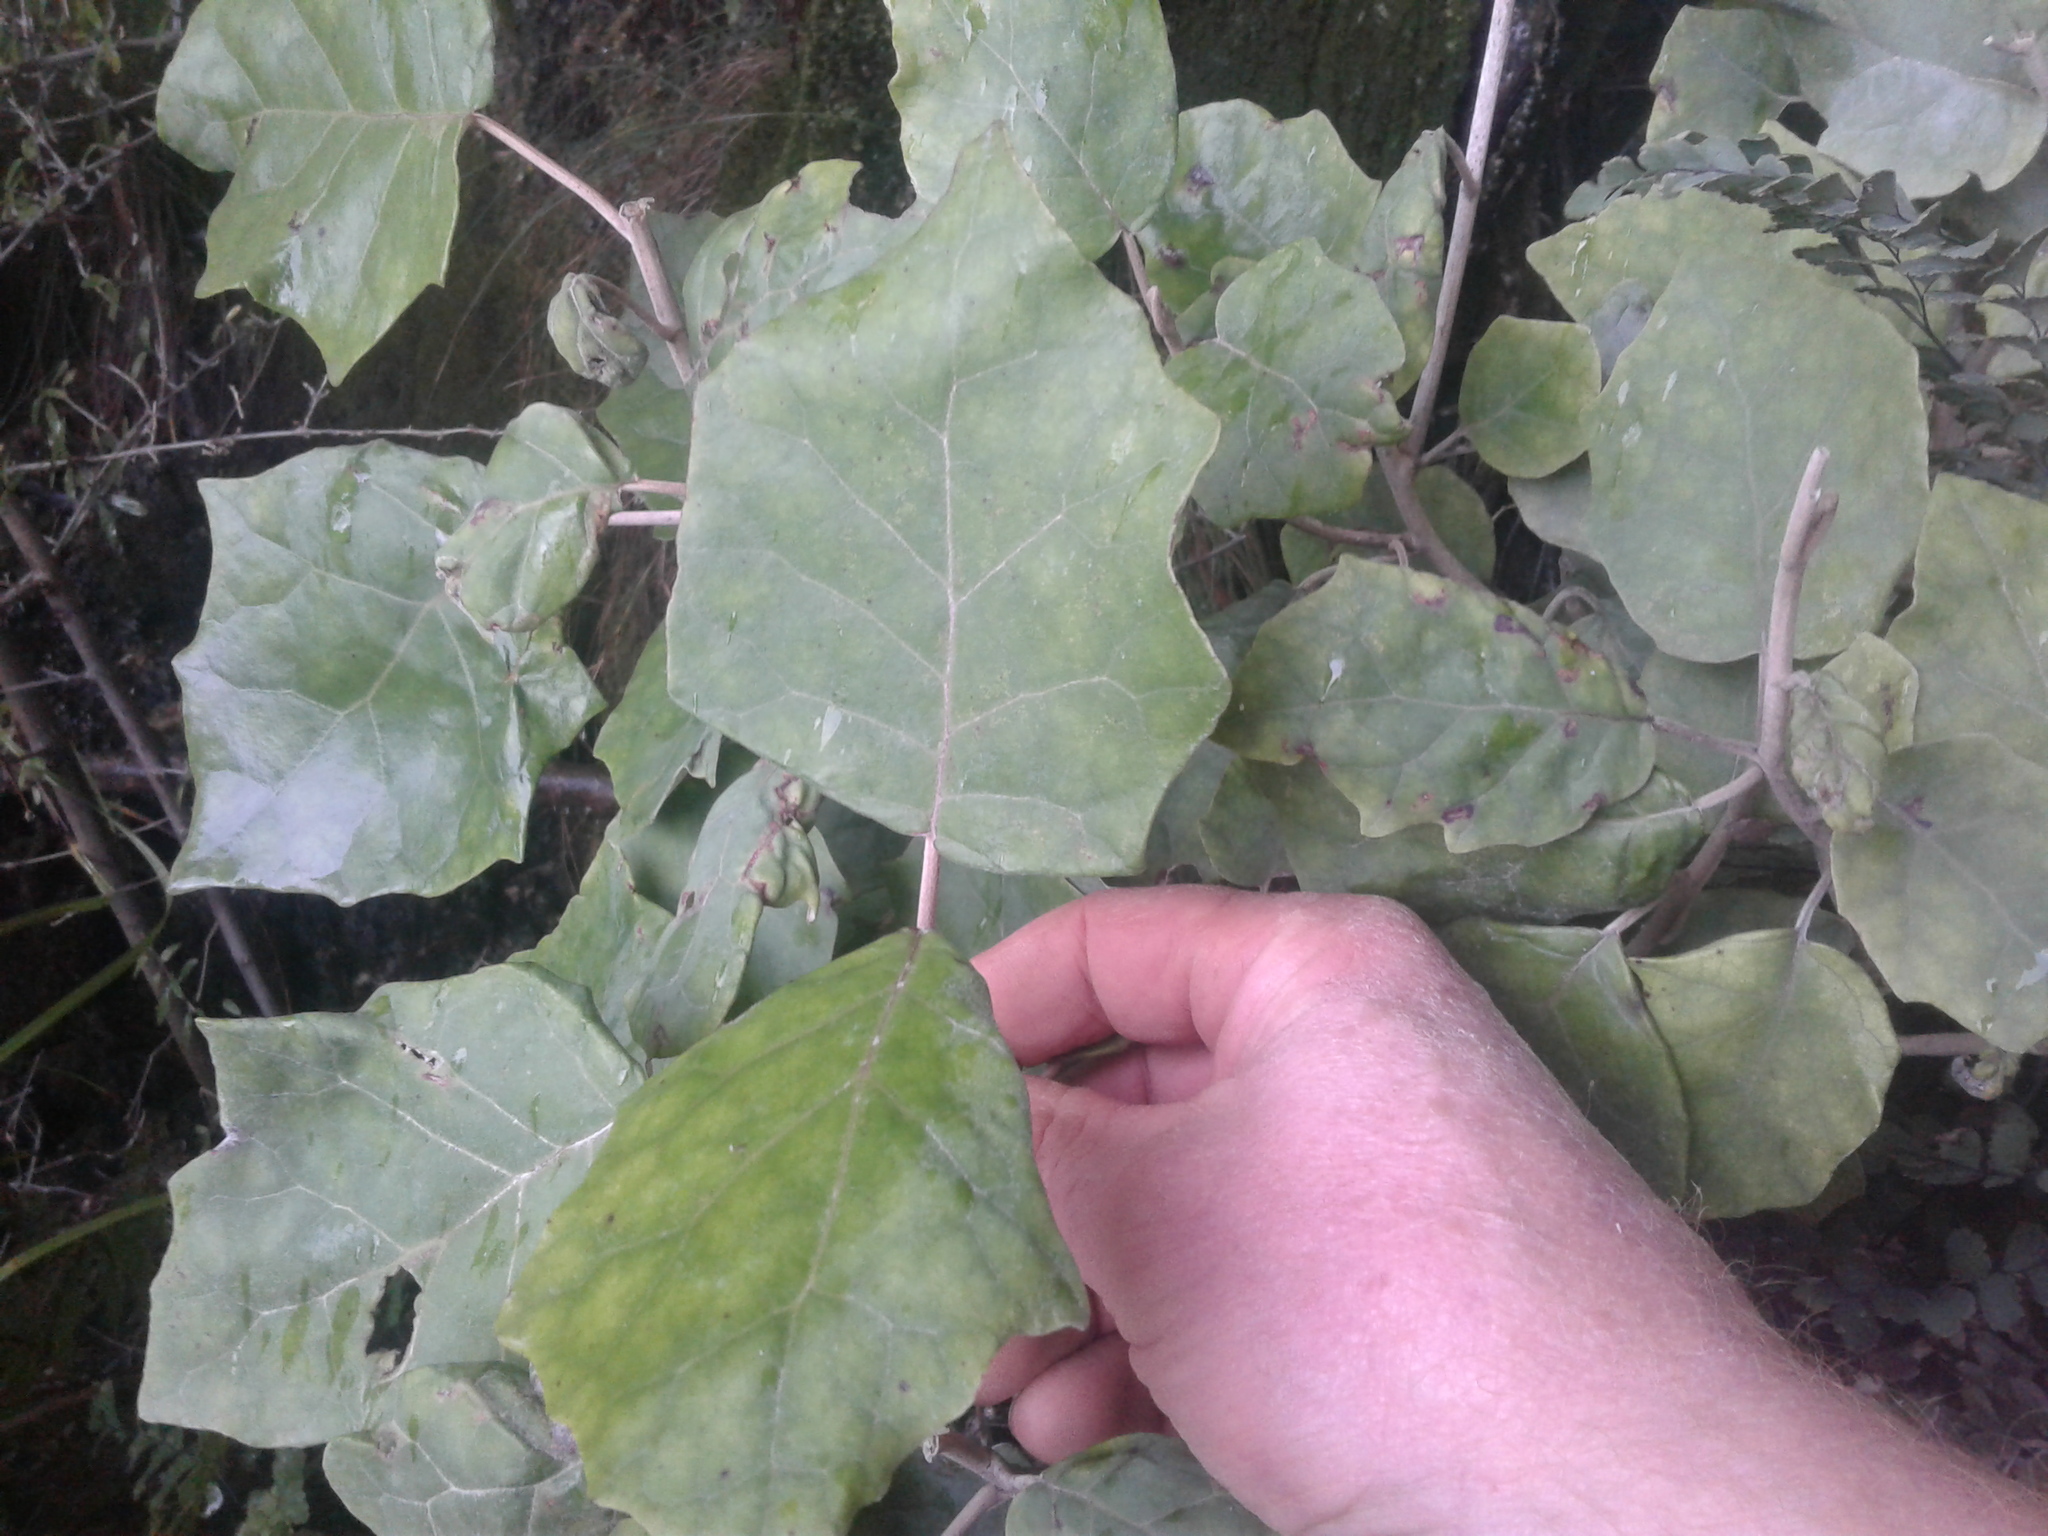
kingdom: Plantae
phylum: Tracheophyta
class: Magnoliopsida
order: Asterales
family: Asteraceae
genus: Brachyglottis
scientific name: Brachyglottis repanda
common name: Hedge ragwort
